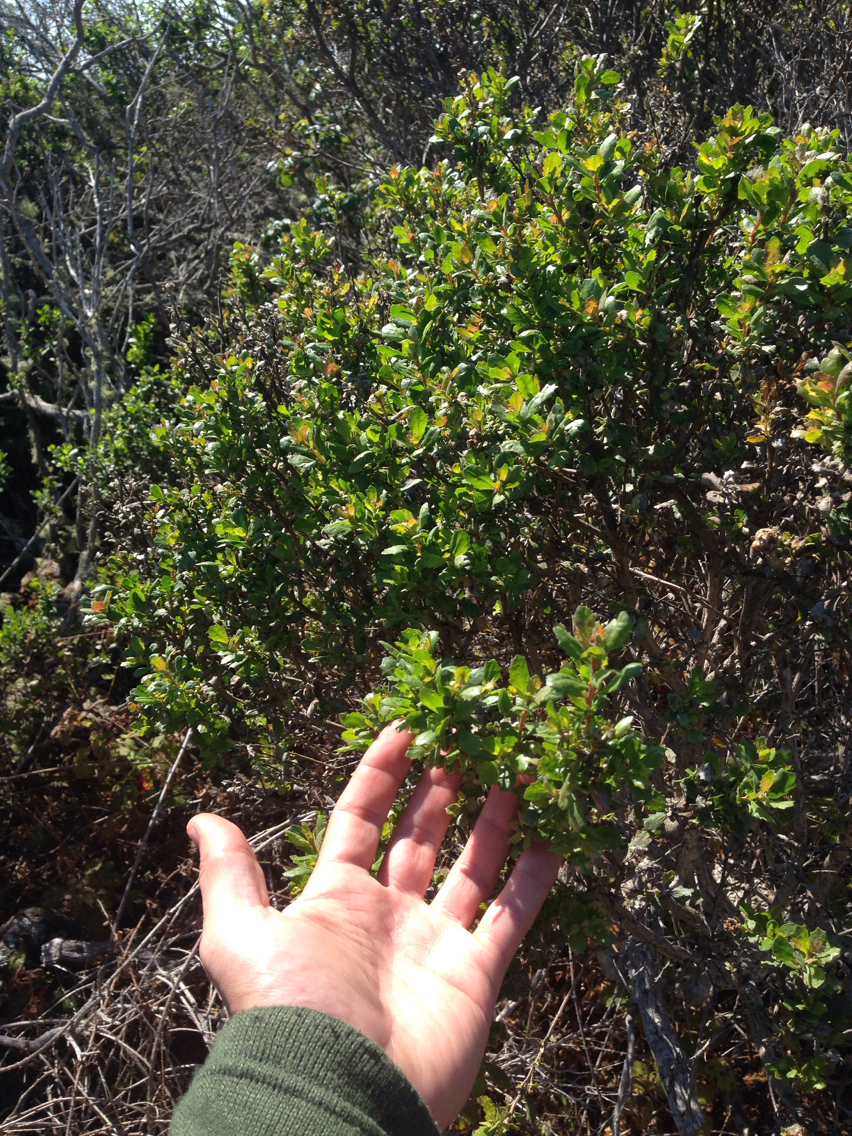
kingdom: Plantae
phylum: Tracheophyta
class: Magnoliopsida
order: Asterales
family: Asteraceae
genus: Baccharis
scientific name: Baccharis pilularis
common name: Coyotebrush
